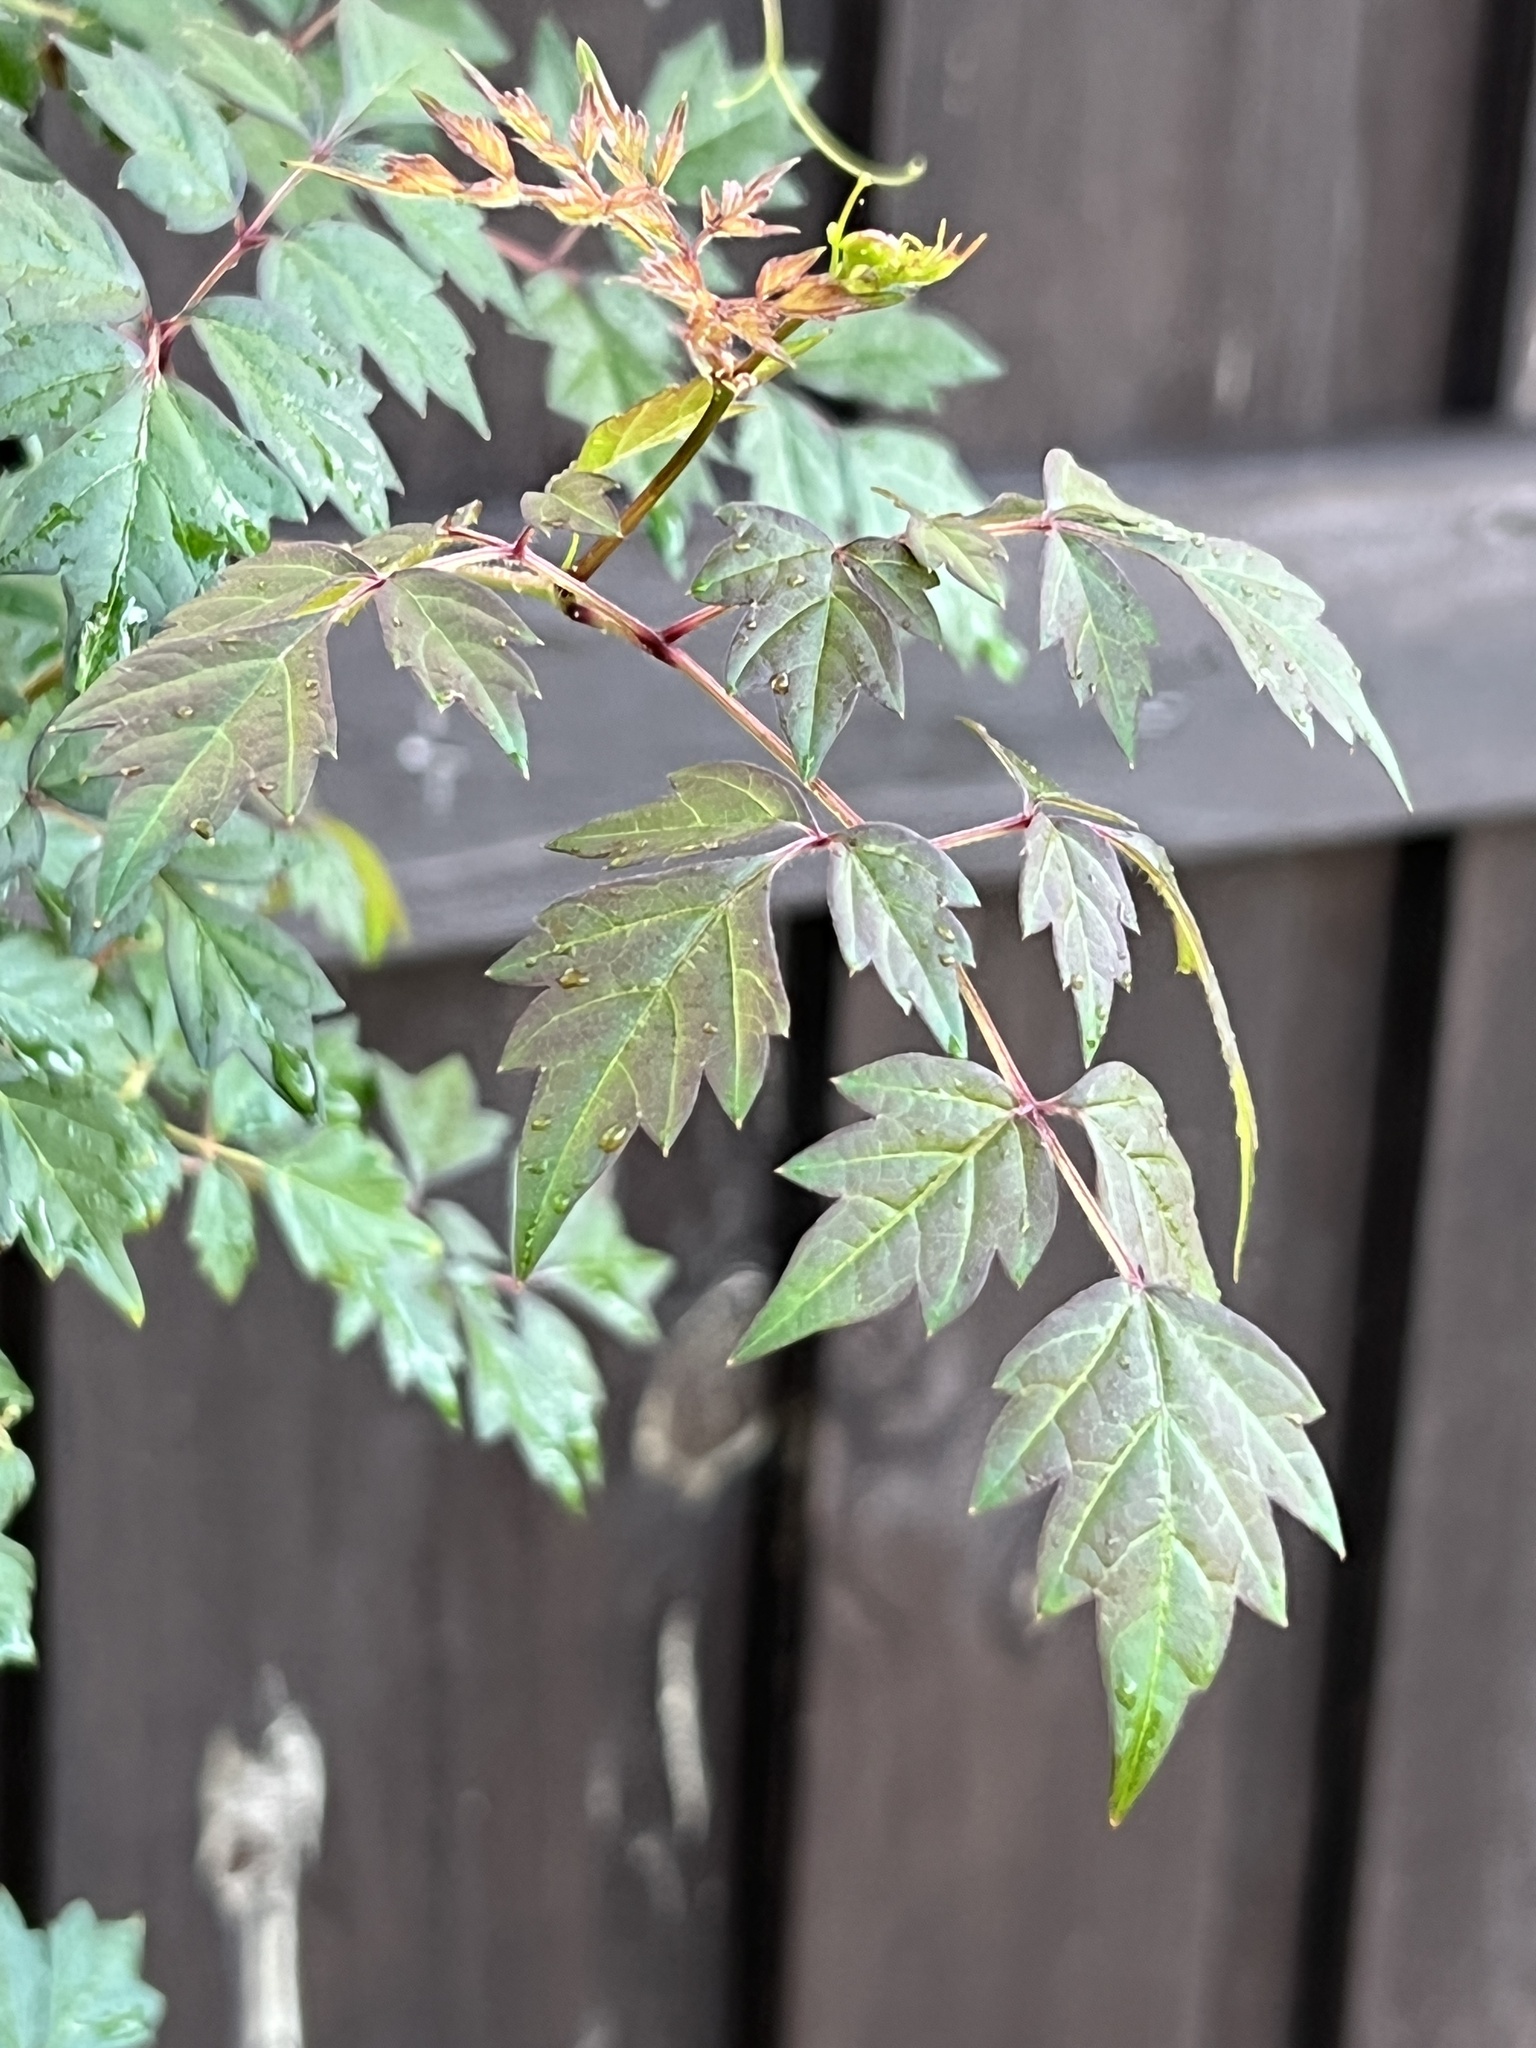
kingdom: Plantae
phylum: Tracheophyta
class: Magnoliopsida
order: Vitales
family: Vitaceae
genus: Nekemias
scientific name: Nekemias arborea
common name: Peppervine
